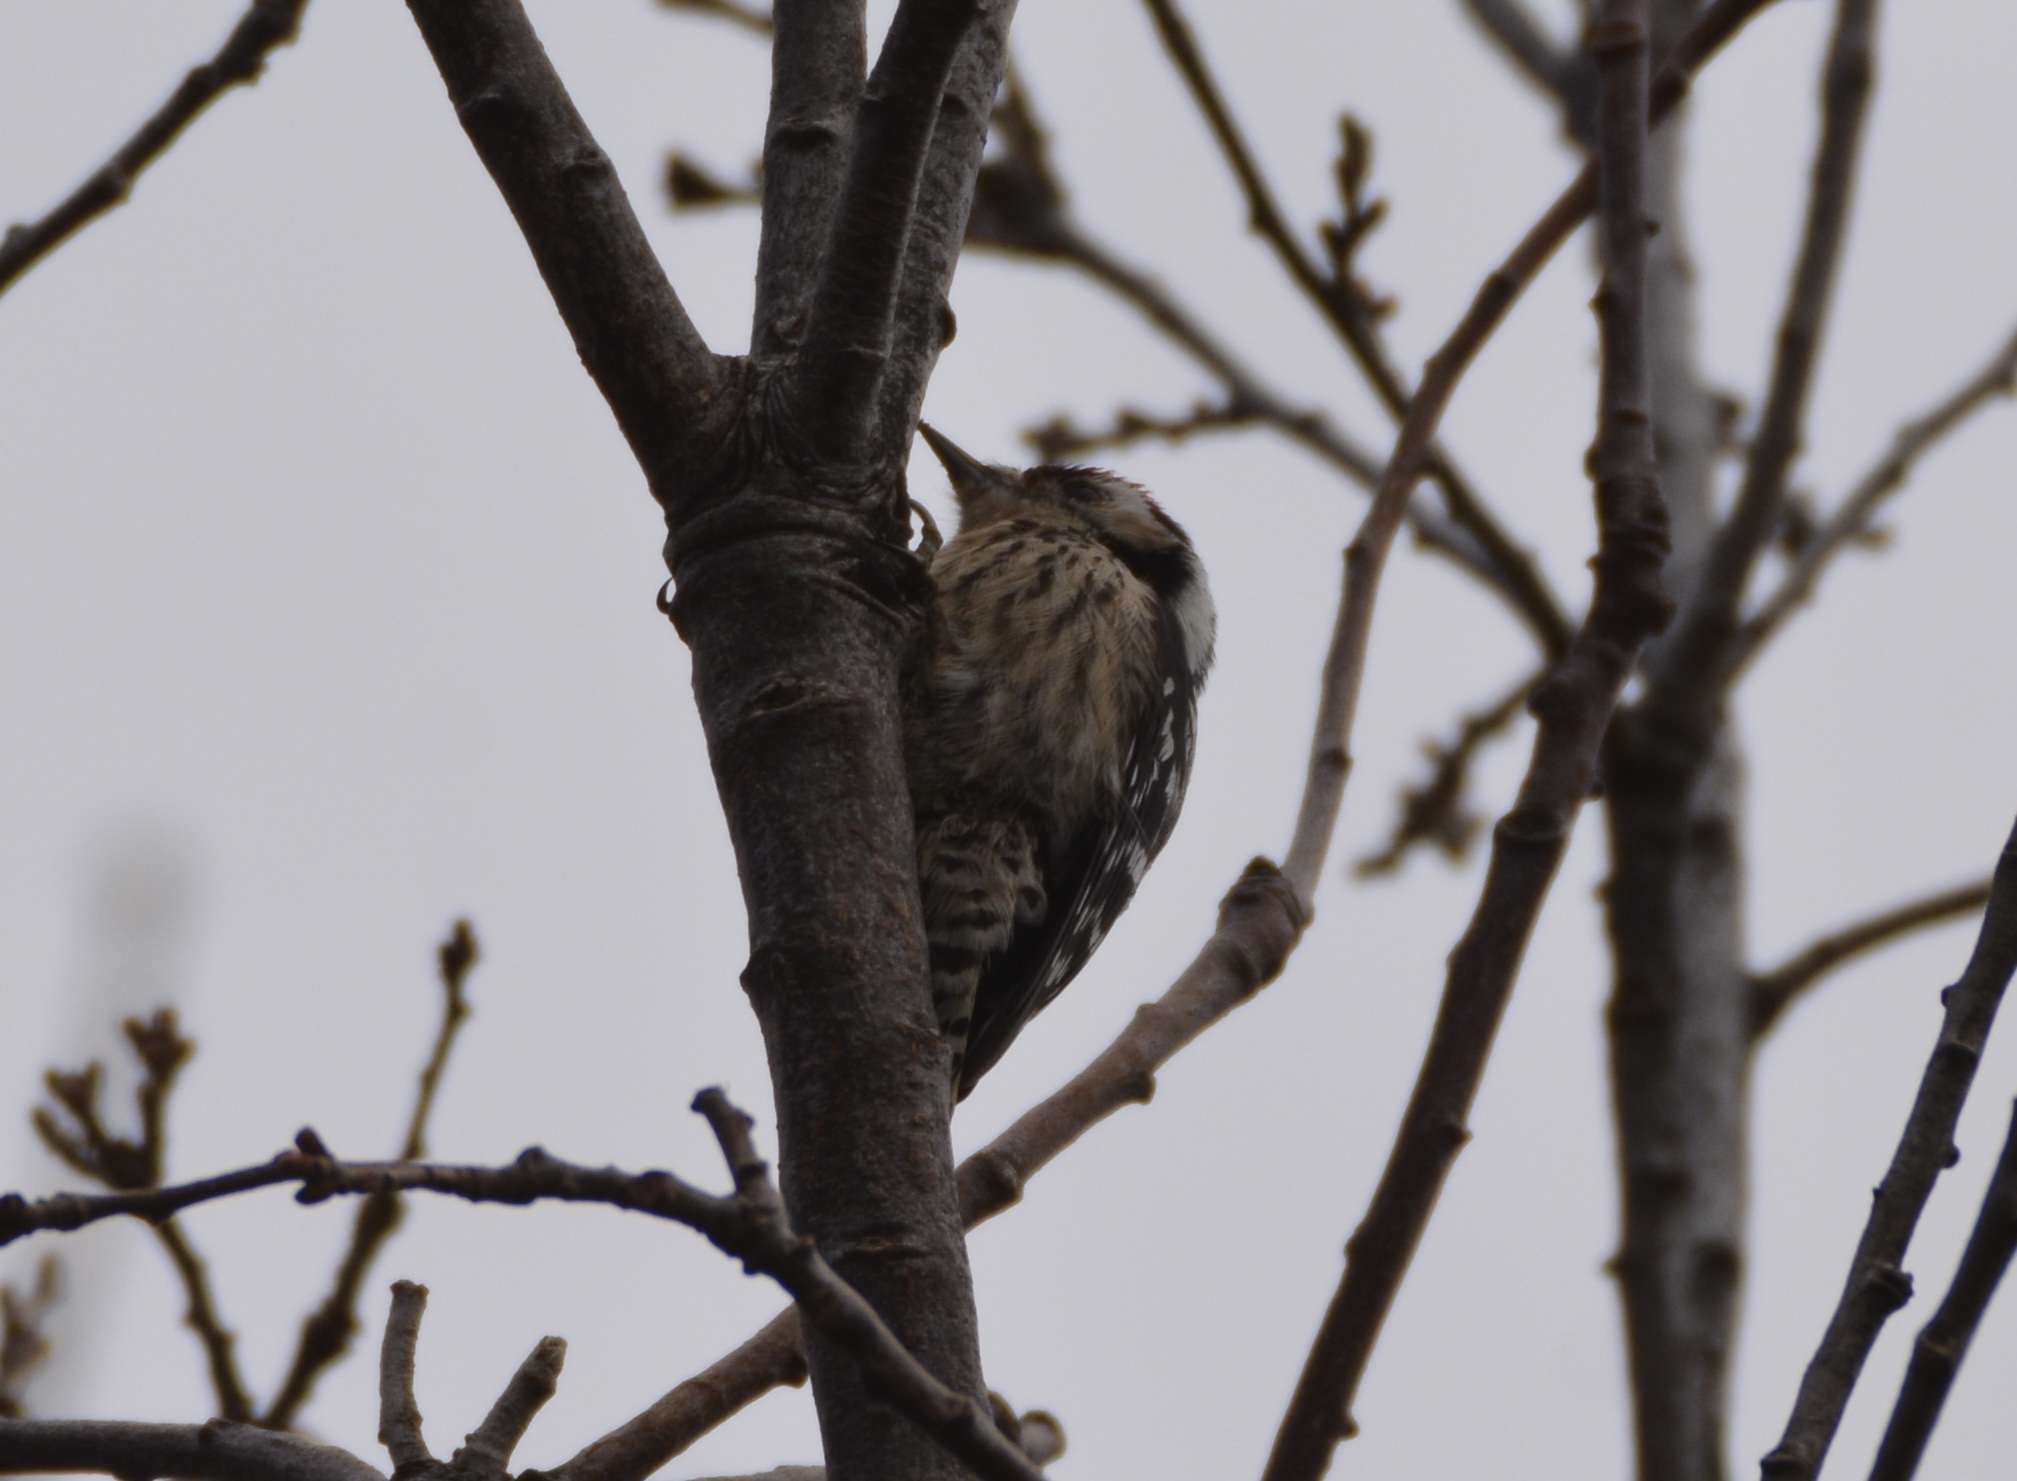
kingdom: Animalia
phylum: Chordata
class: Aves
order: Piciformes
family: Picidae
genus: Dryobates
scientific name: Dryobates minor
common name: Lesser spotted woodpecker
